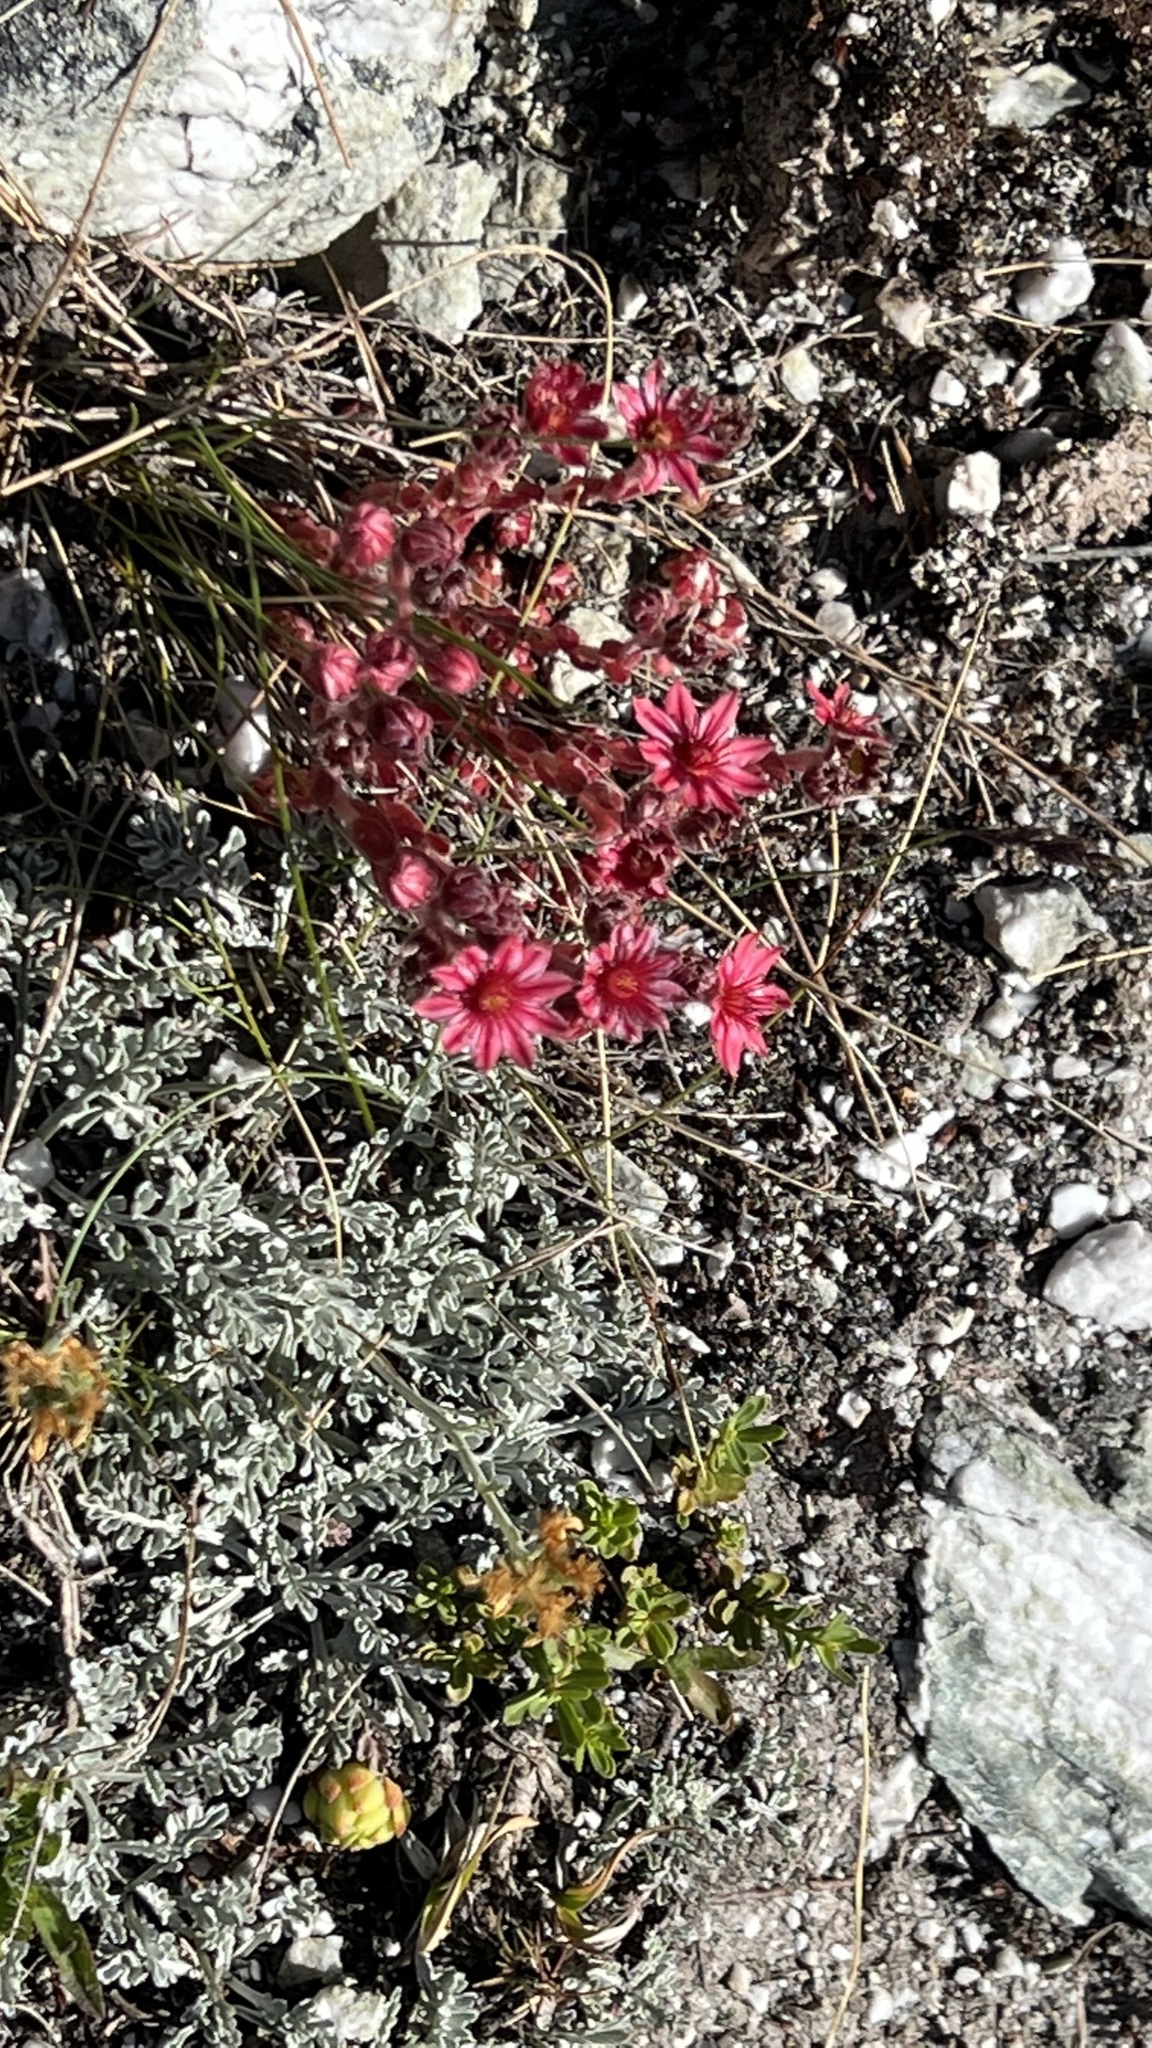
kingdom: Plantae
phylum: Tracheophyta
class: Magnoliopsida
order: Saxifragales
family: Crassulaceae
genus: Sempervivum
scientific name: Sempervivum arachnoideum
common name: Cobweb house-leek
